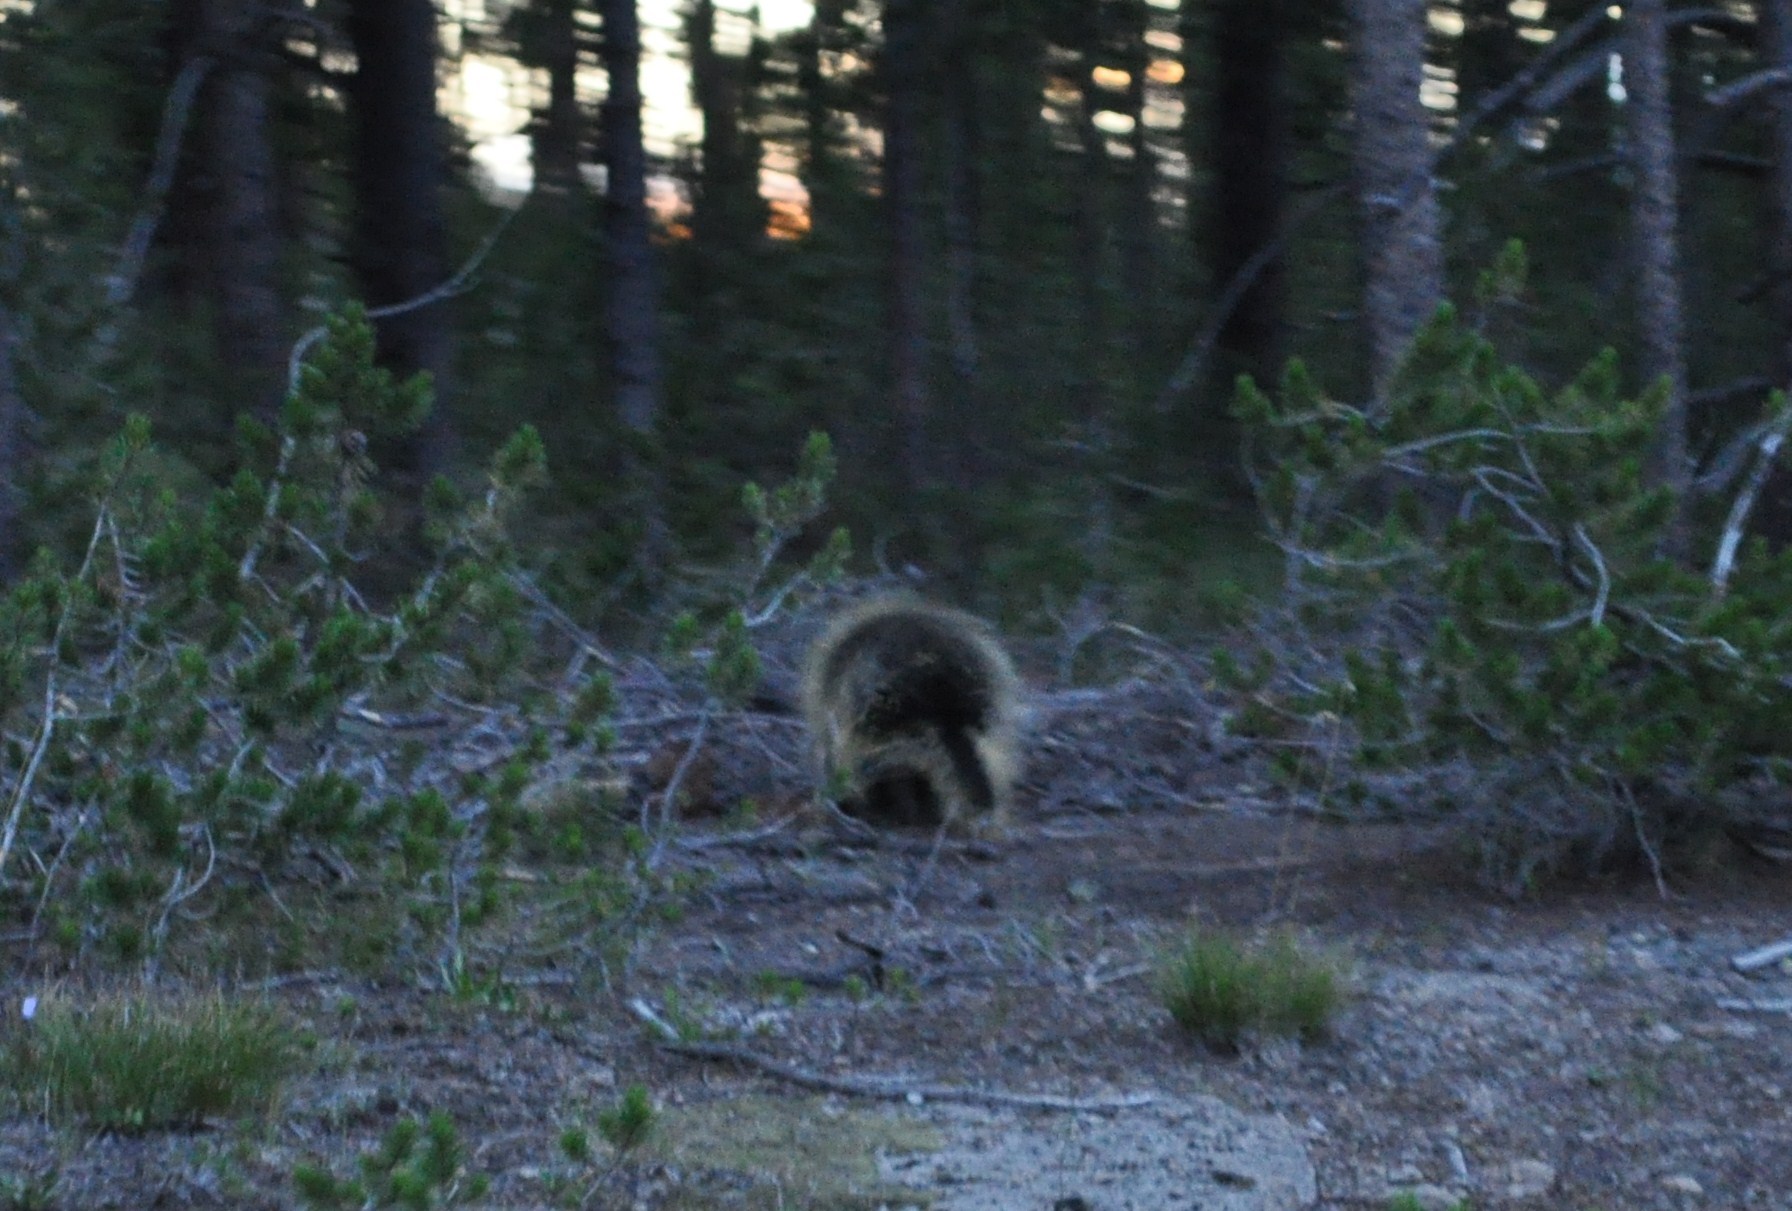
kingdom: Animalia
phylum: Chordata
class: Mammalia
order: Rodentia
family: Erethizontidae
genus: Erethizon
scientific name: Erethizon dorsatus
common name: North american porcupine
